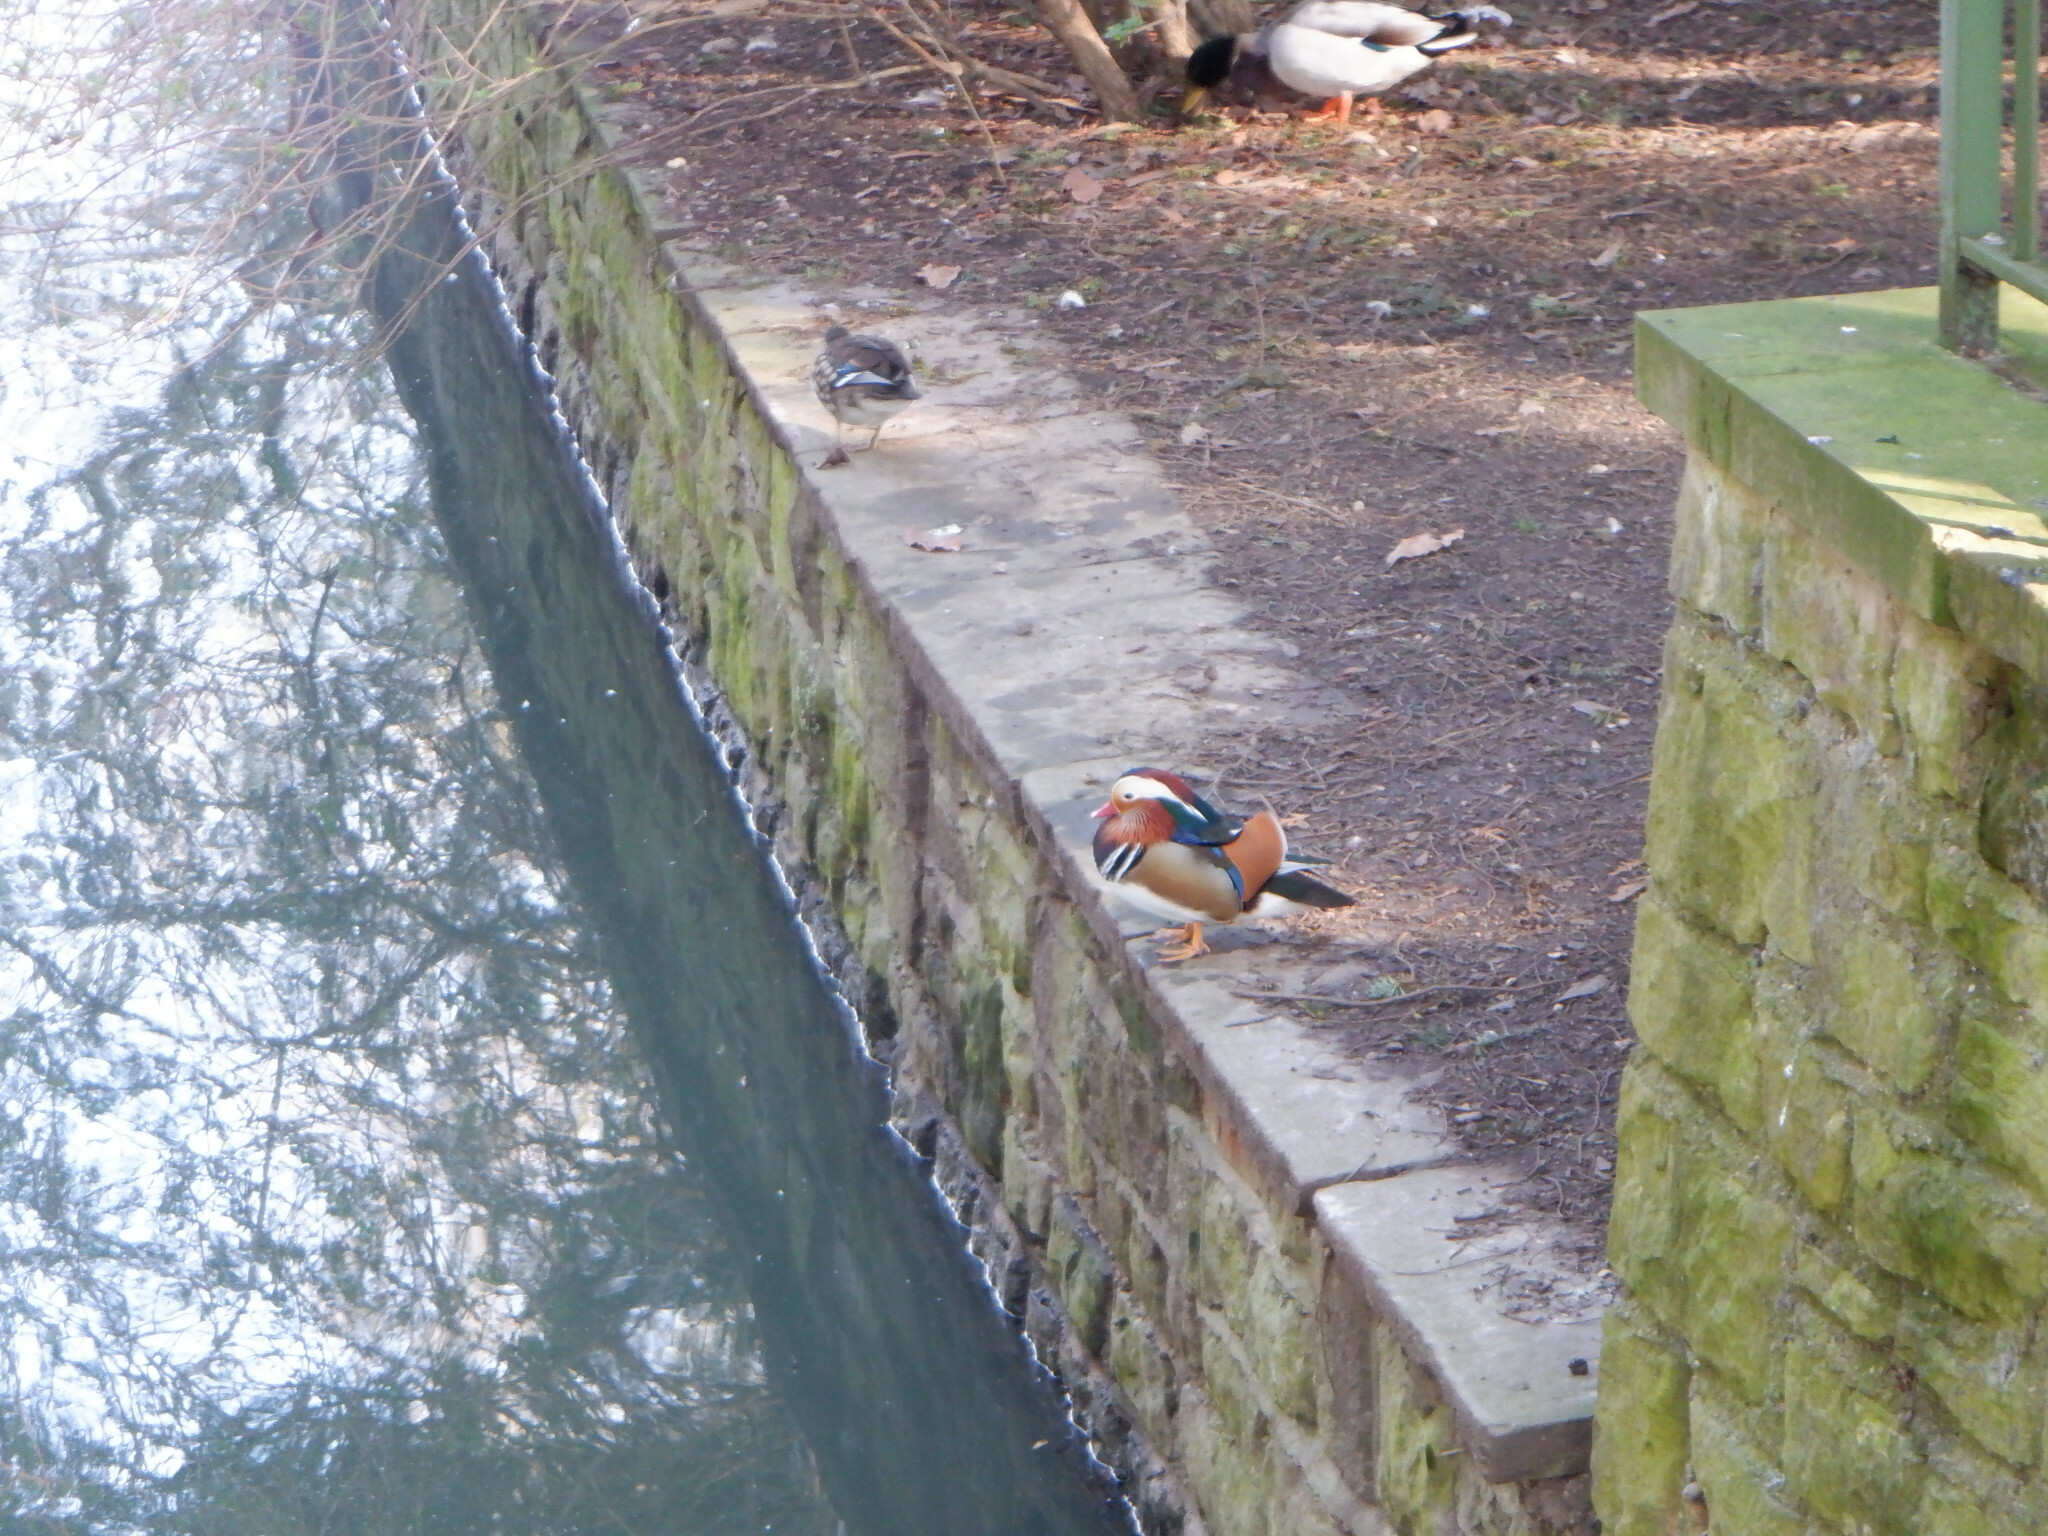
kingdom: Animalia
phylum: Chordata
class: Aves
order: Anseriformes
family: Anatidae
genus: Aix
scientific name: Aix galericulata
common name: Mandarin duck
